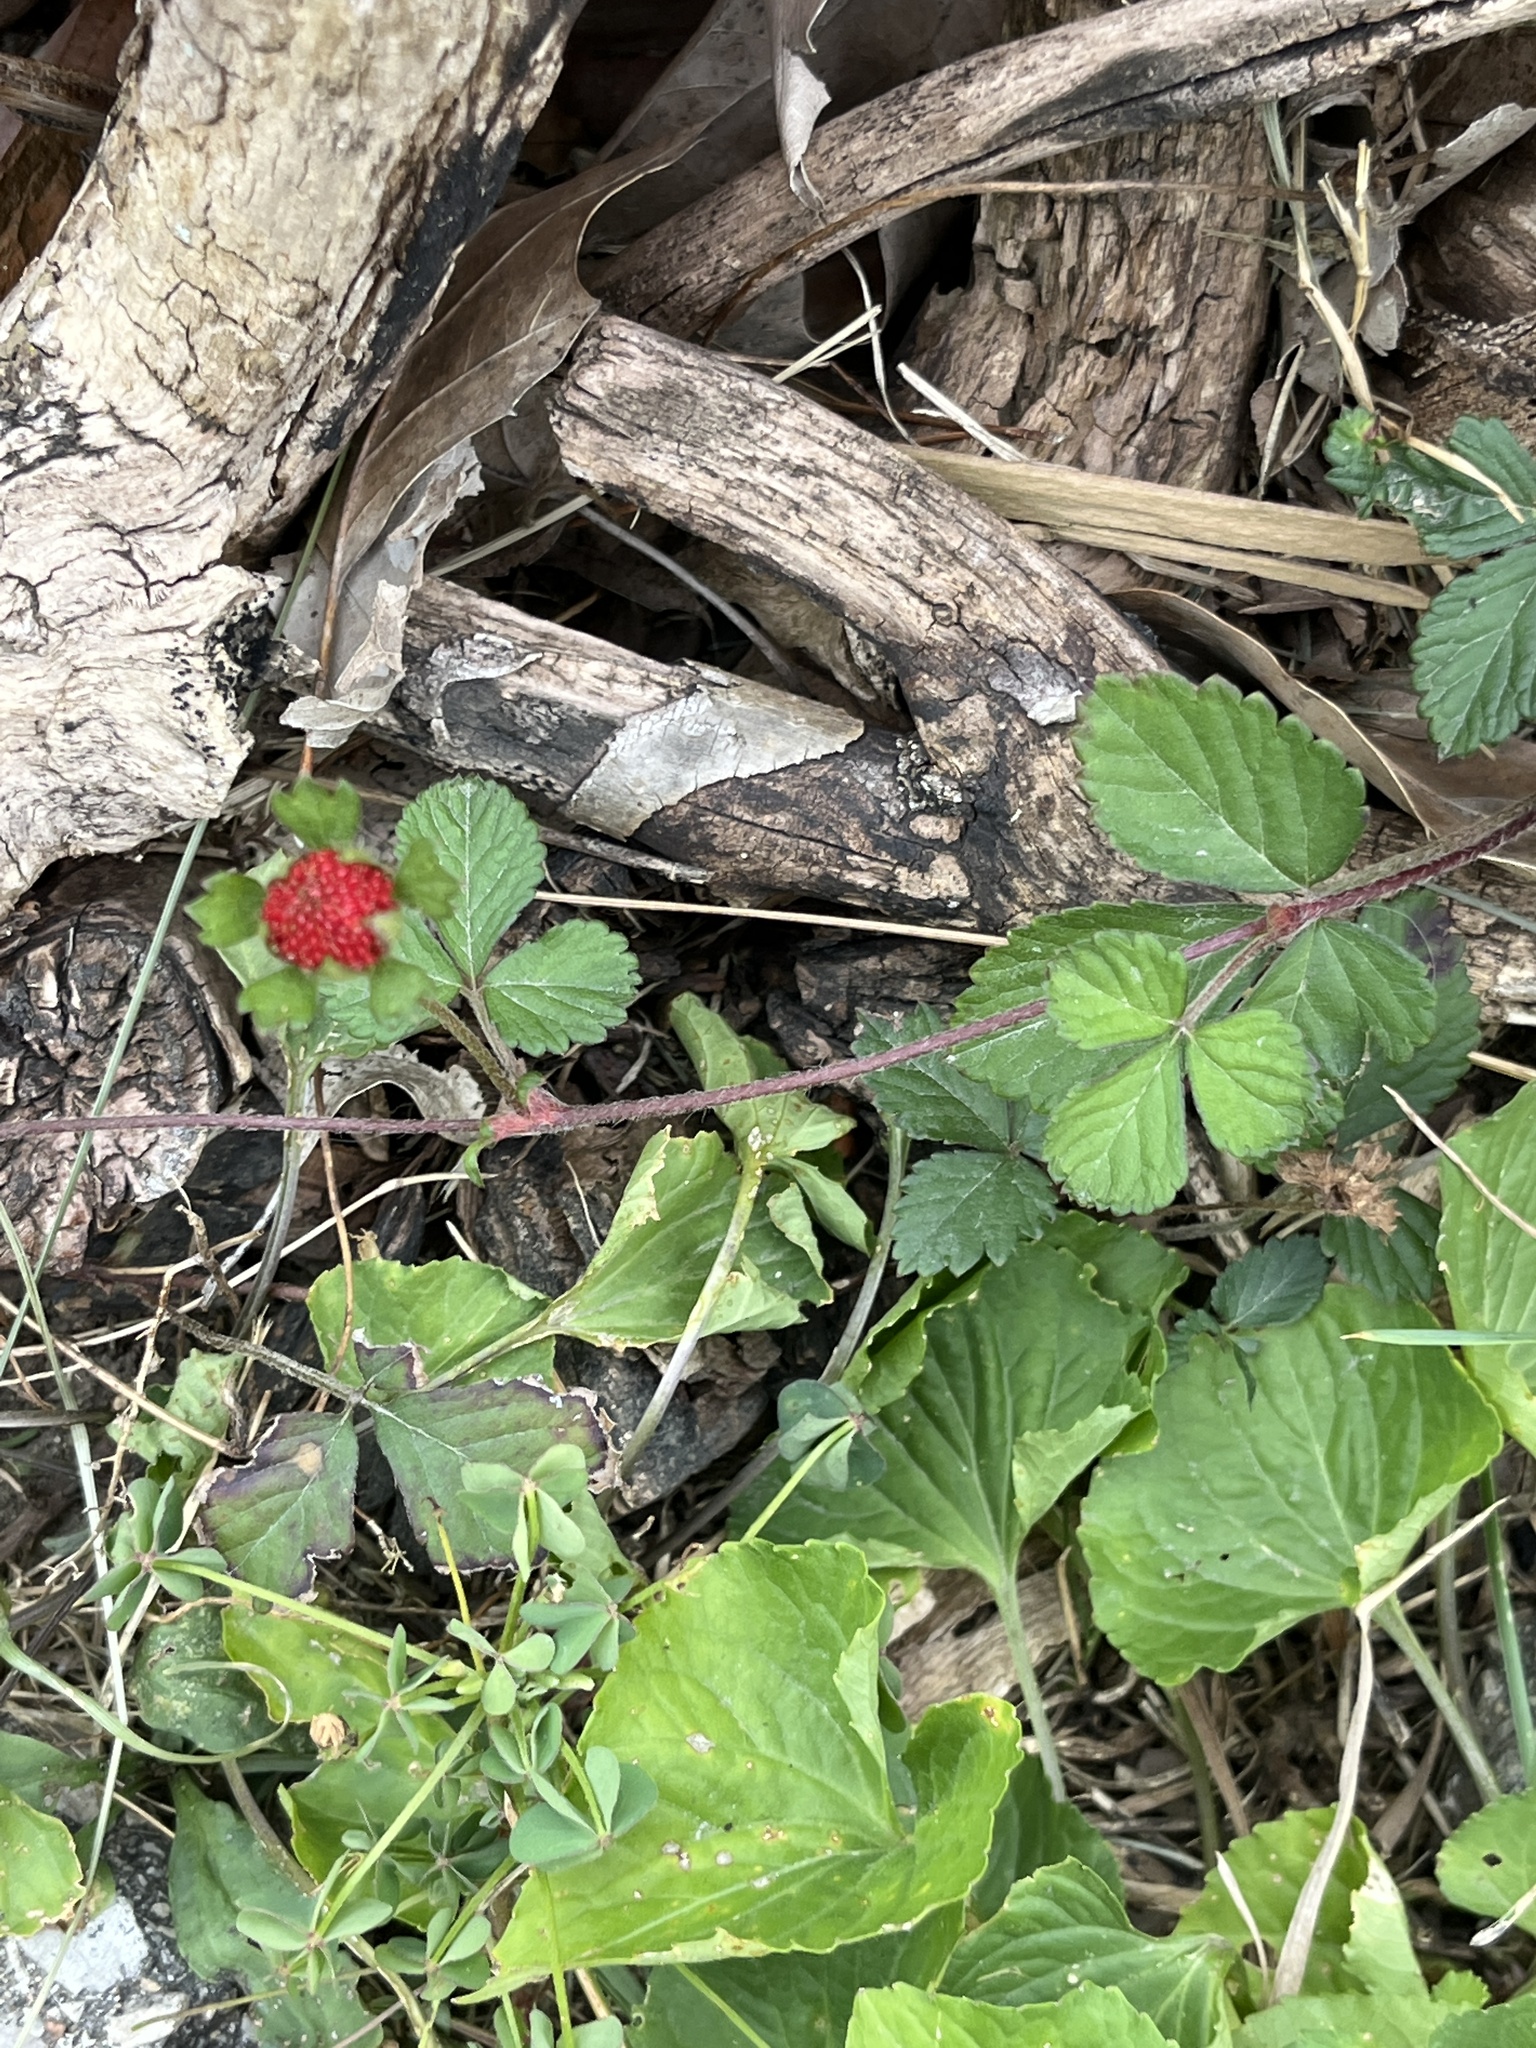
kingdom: Plantae
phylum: Tracheophyta
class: Magnoliopsida
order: Rosales
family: Rosaceae
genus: Potentilla
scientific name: Potentilla indica
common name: Yellow-flowered strawberry
